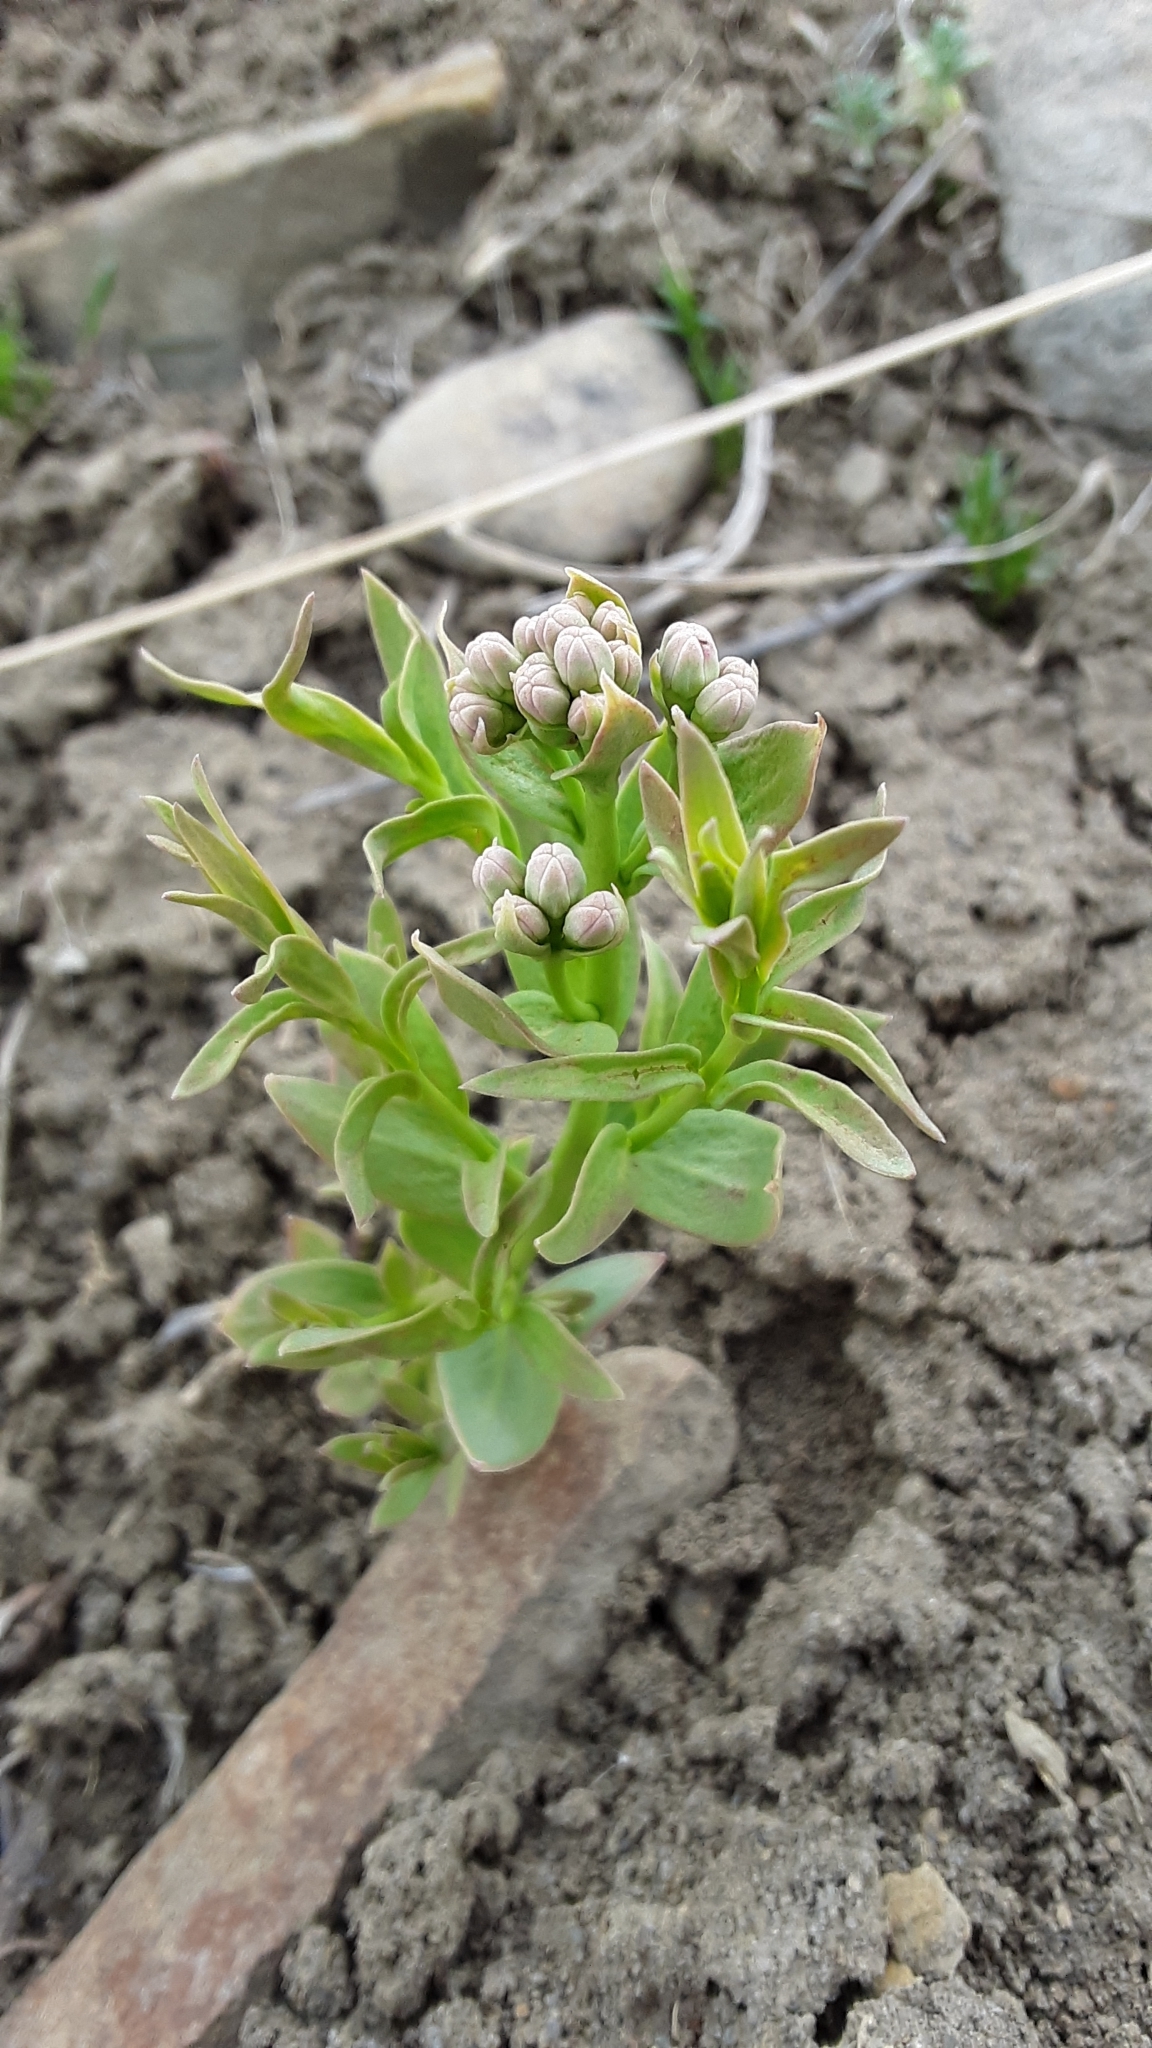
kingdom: Plantae
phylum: Tracheophyta
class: Magnoliopsida
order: Santalales
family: Comandraceae
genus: Comandra
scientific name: Comandra umbellata
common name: Bastard toadflax
